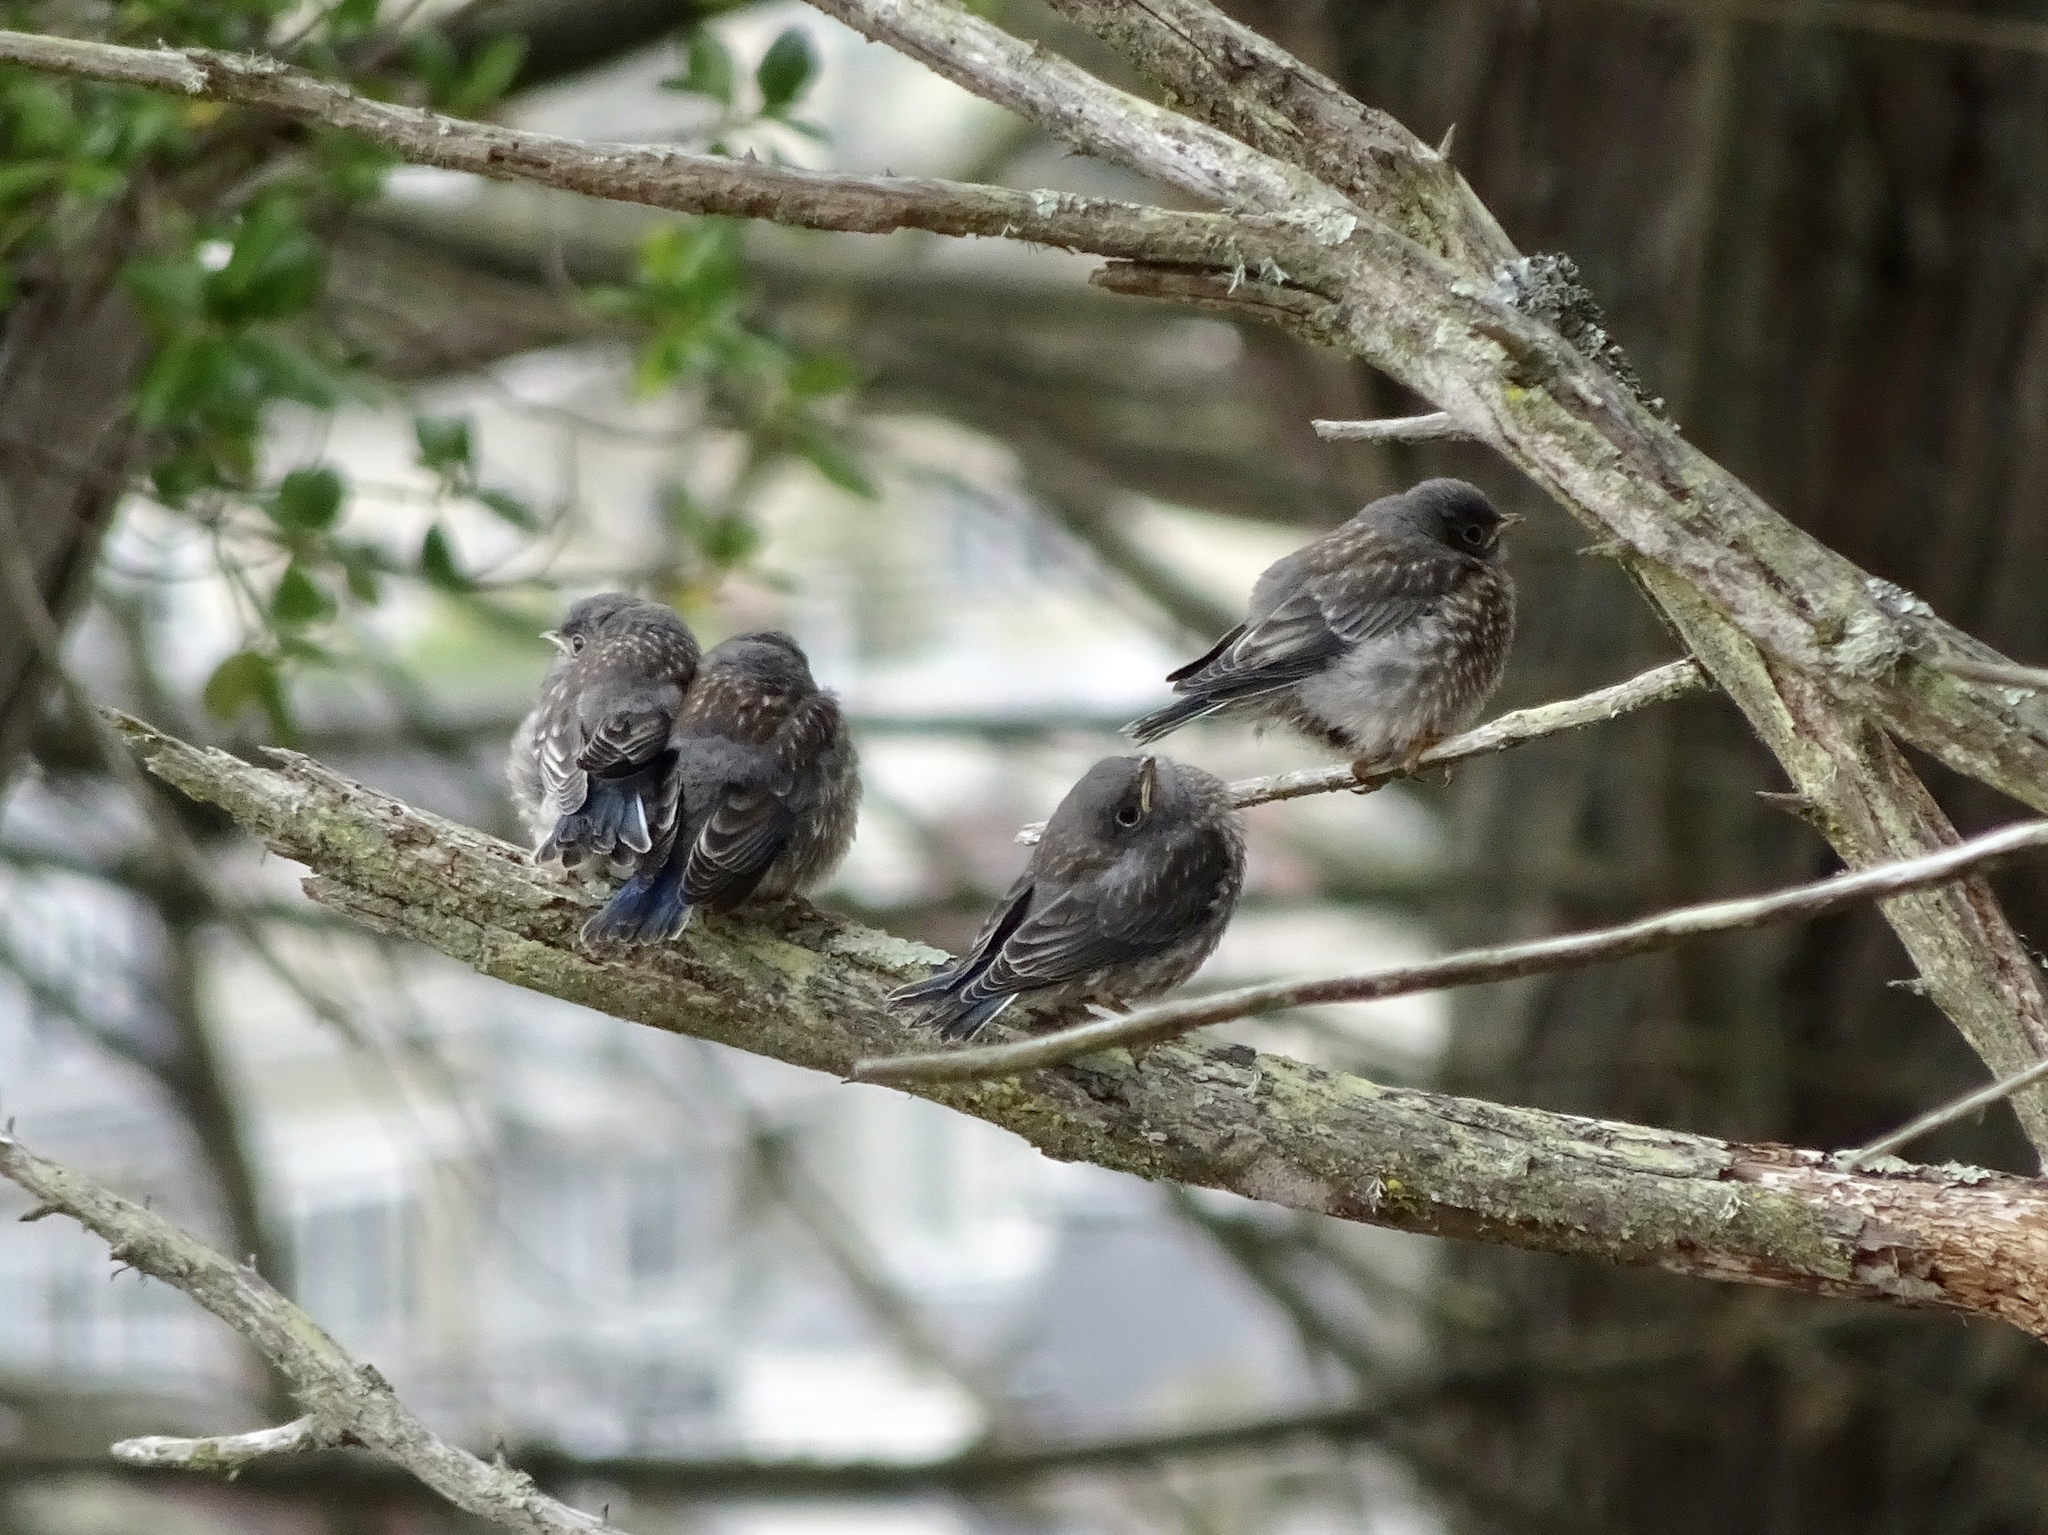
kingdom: Animalia
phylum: Chordata
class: Aves
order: Passeriformes
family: Turdidae
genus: Sialia
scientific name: Sialia mexicana
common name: Western bluebird
